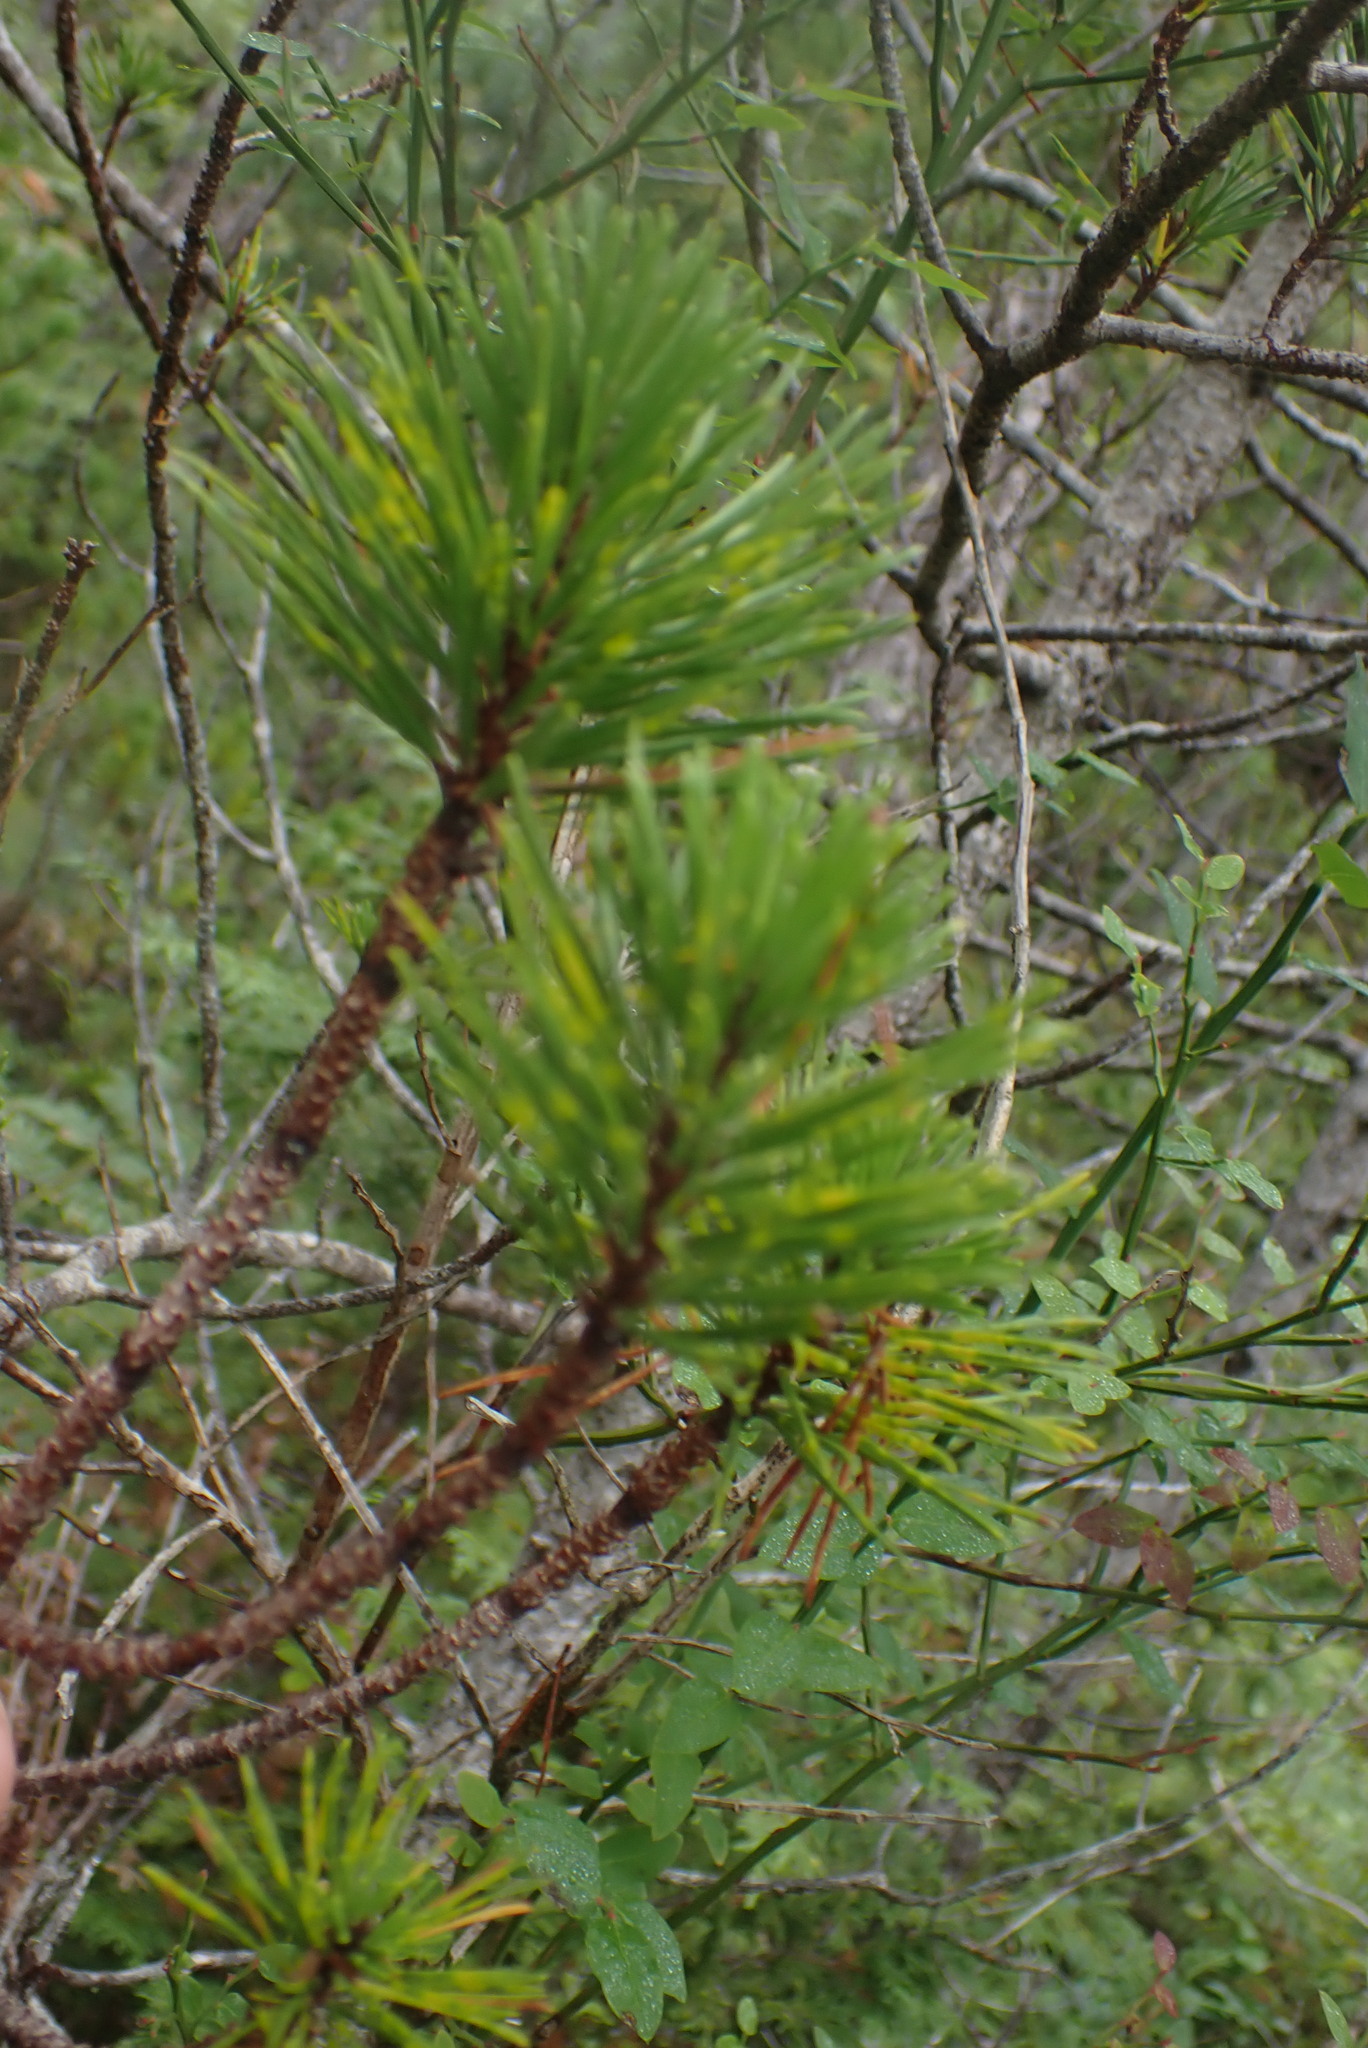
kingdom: Plantae
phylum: Tracheophyta
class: Pinopsida
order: Pinales
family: Pinaceae
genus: Pinus
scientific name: Pinus contorta
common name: Lodgepole pine
